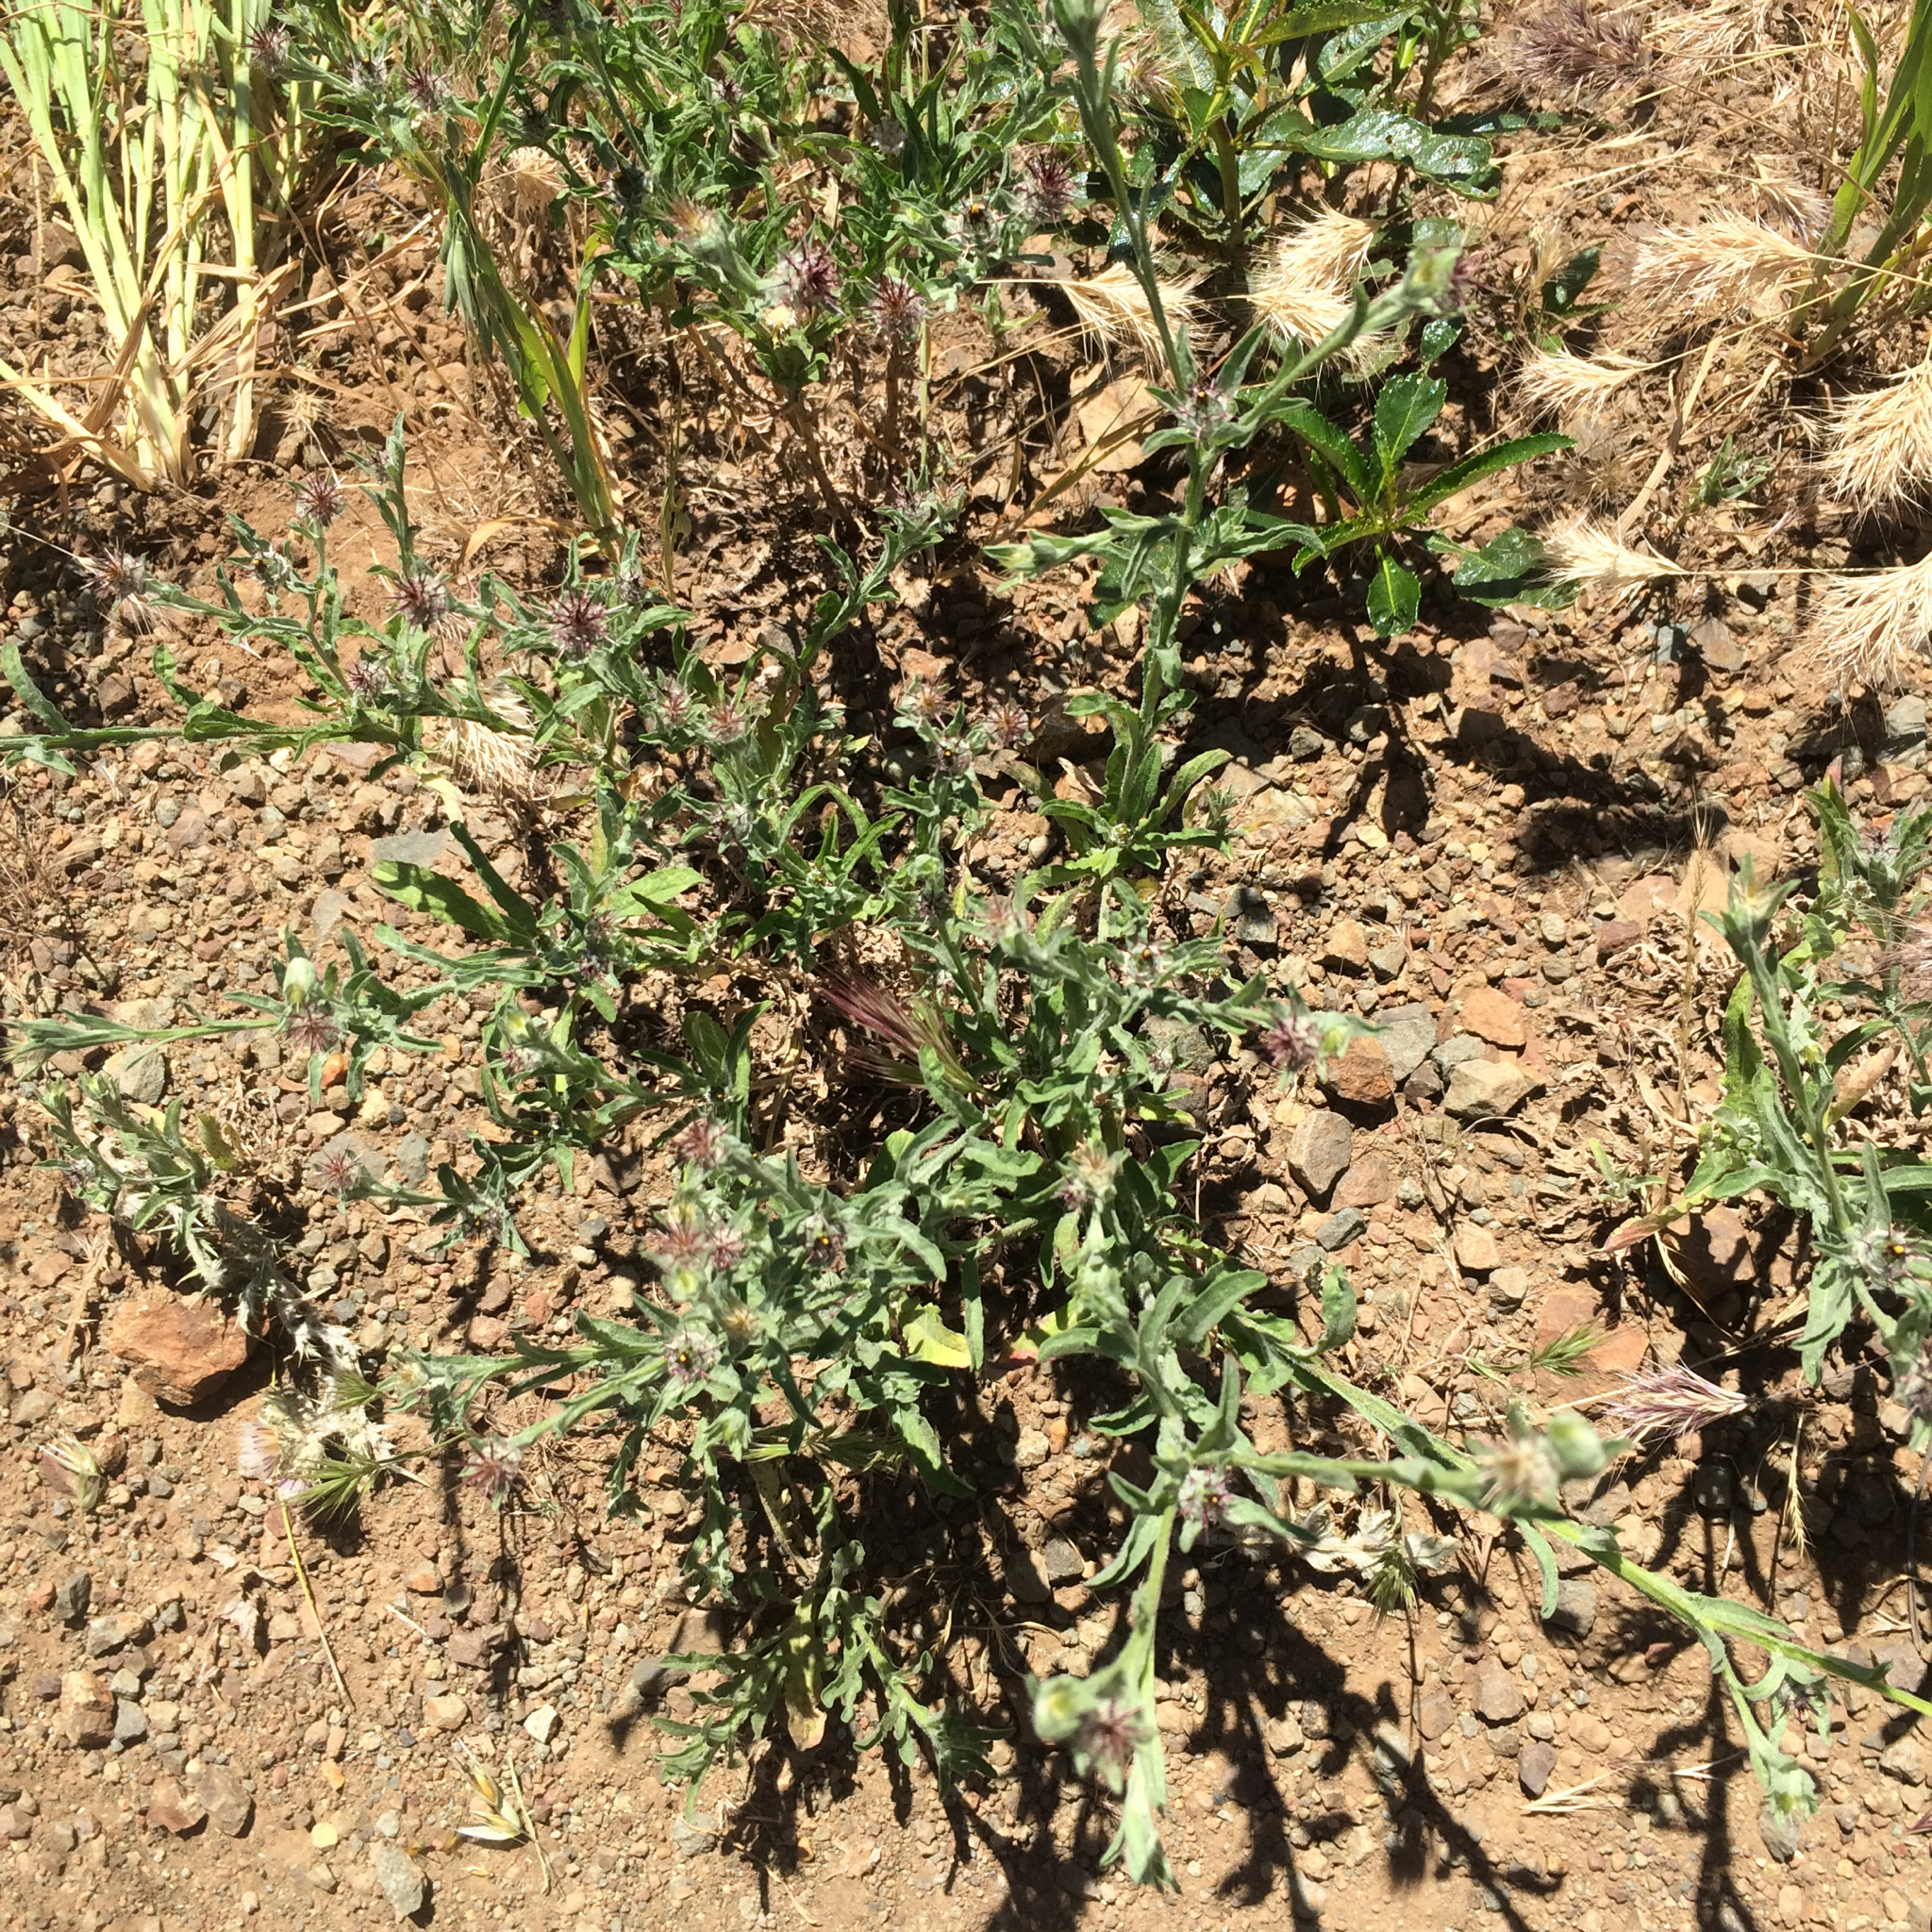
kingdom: Plantae
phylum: Tracheophyta
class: Magnoliopsida
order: Asterales
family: Asteraceae
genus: Centaurea
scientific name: Centaurea melitensis
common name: Maltese star-thistle
